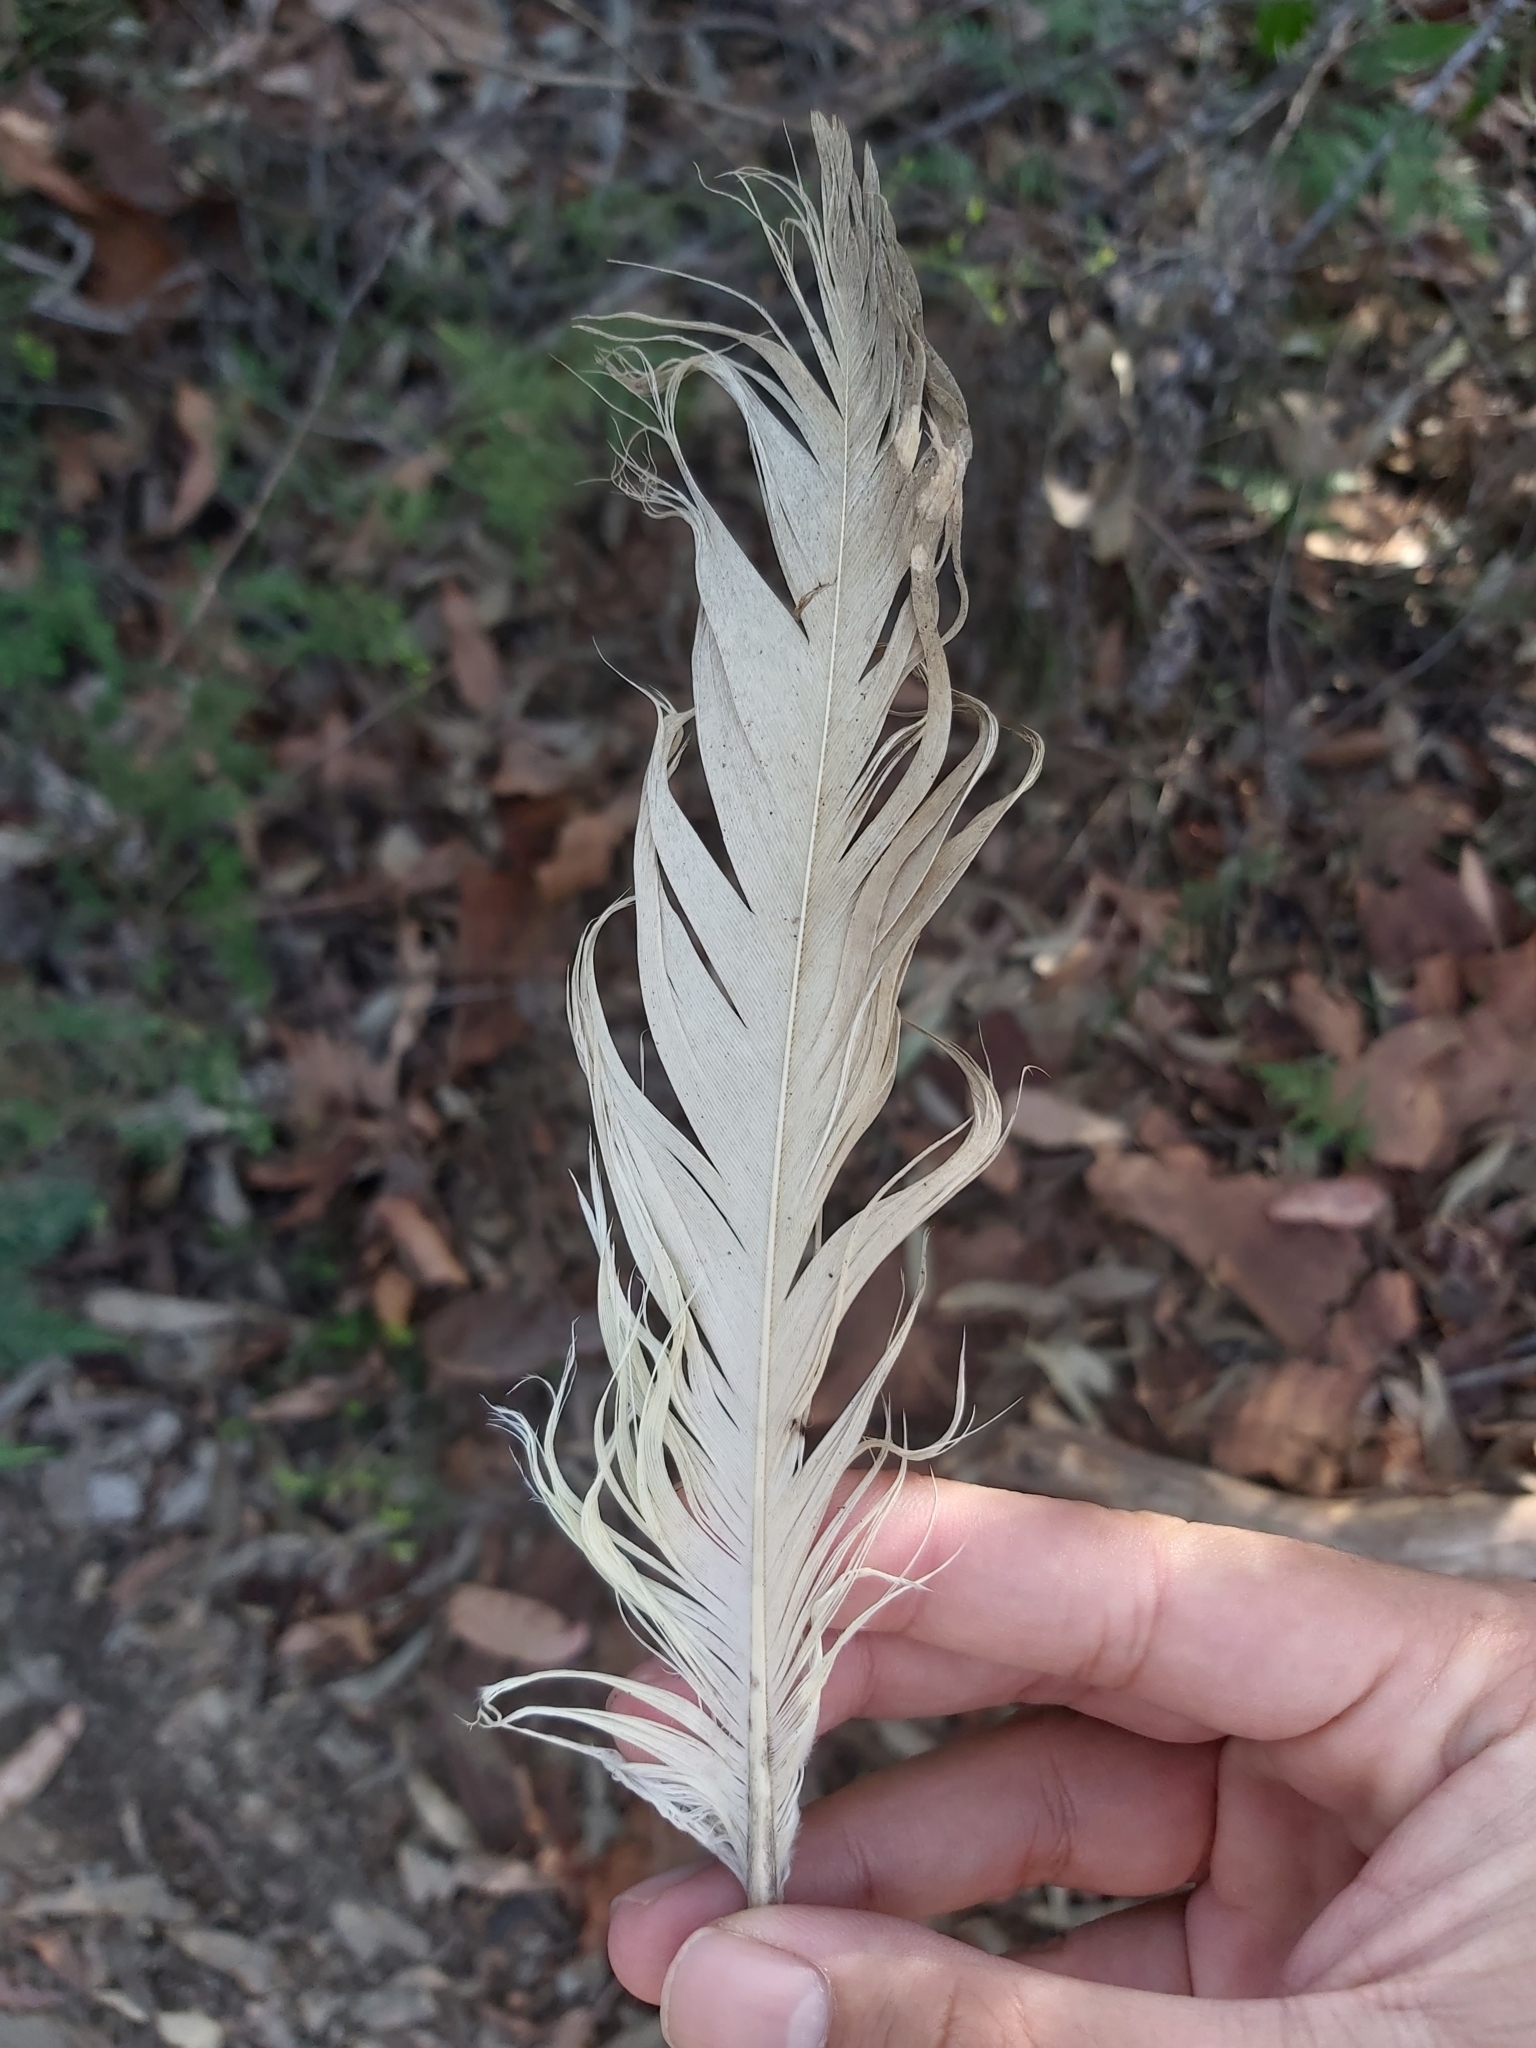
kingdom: Animalia
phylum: Chordata
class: Aves
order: Psittaciformes
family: Psittacidae
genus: Cacatua
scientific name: Cacatua galerita
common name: Sulphur-crested cockatoo
